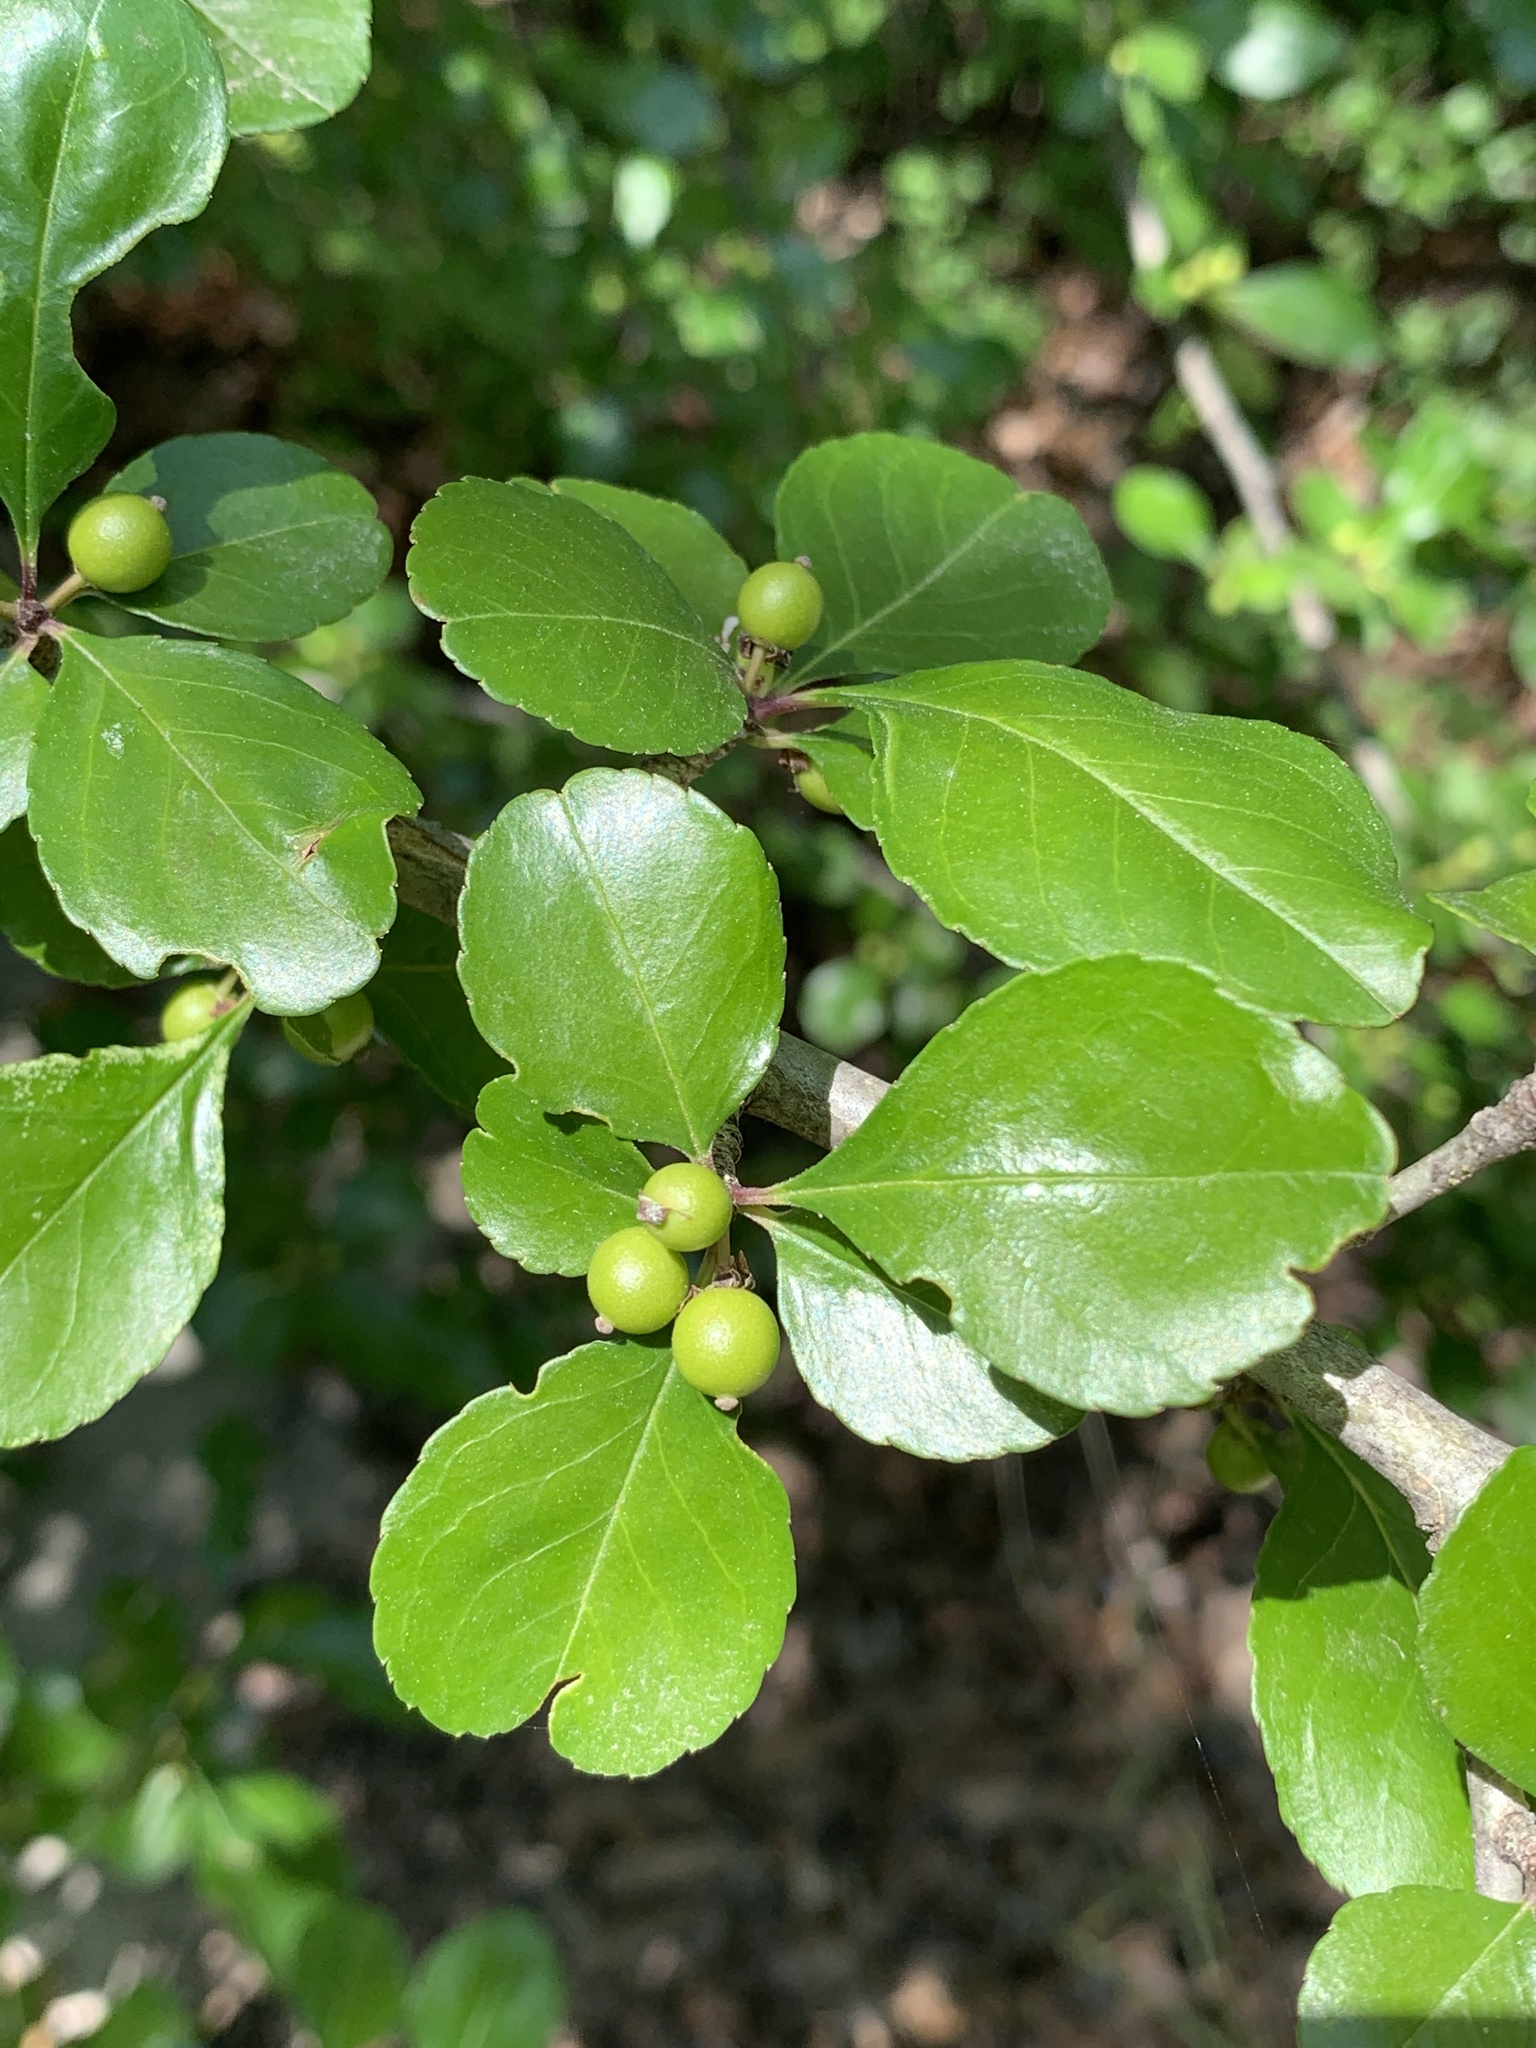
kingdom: Plantae
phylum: Tracheophyta
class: Magnoliopsida
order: Aquifoliales
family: Aquifoliaceae
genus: Ilex
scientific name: Ilex decidua
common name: Possum-haw
